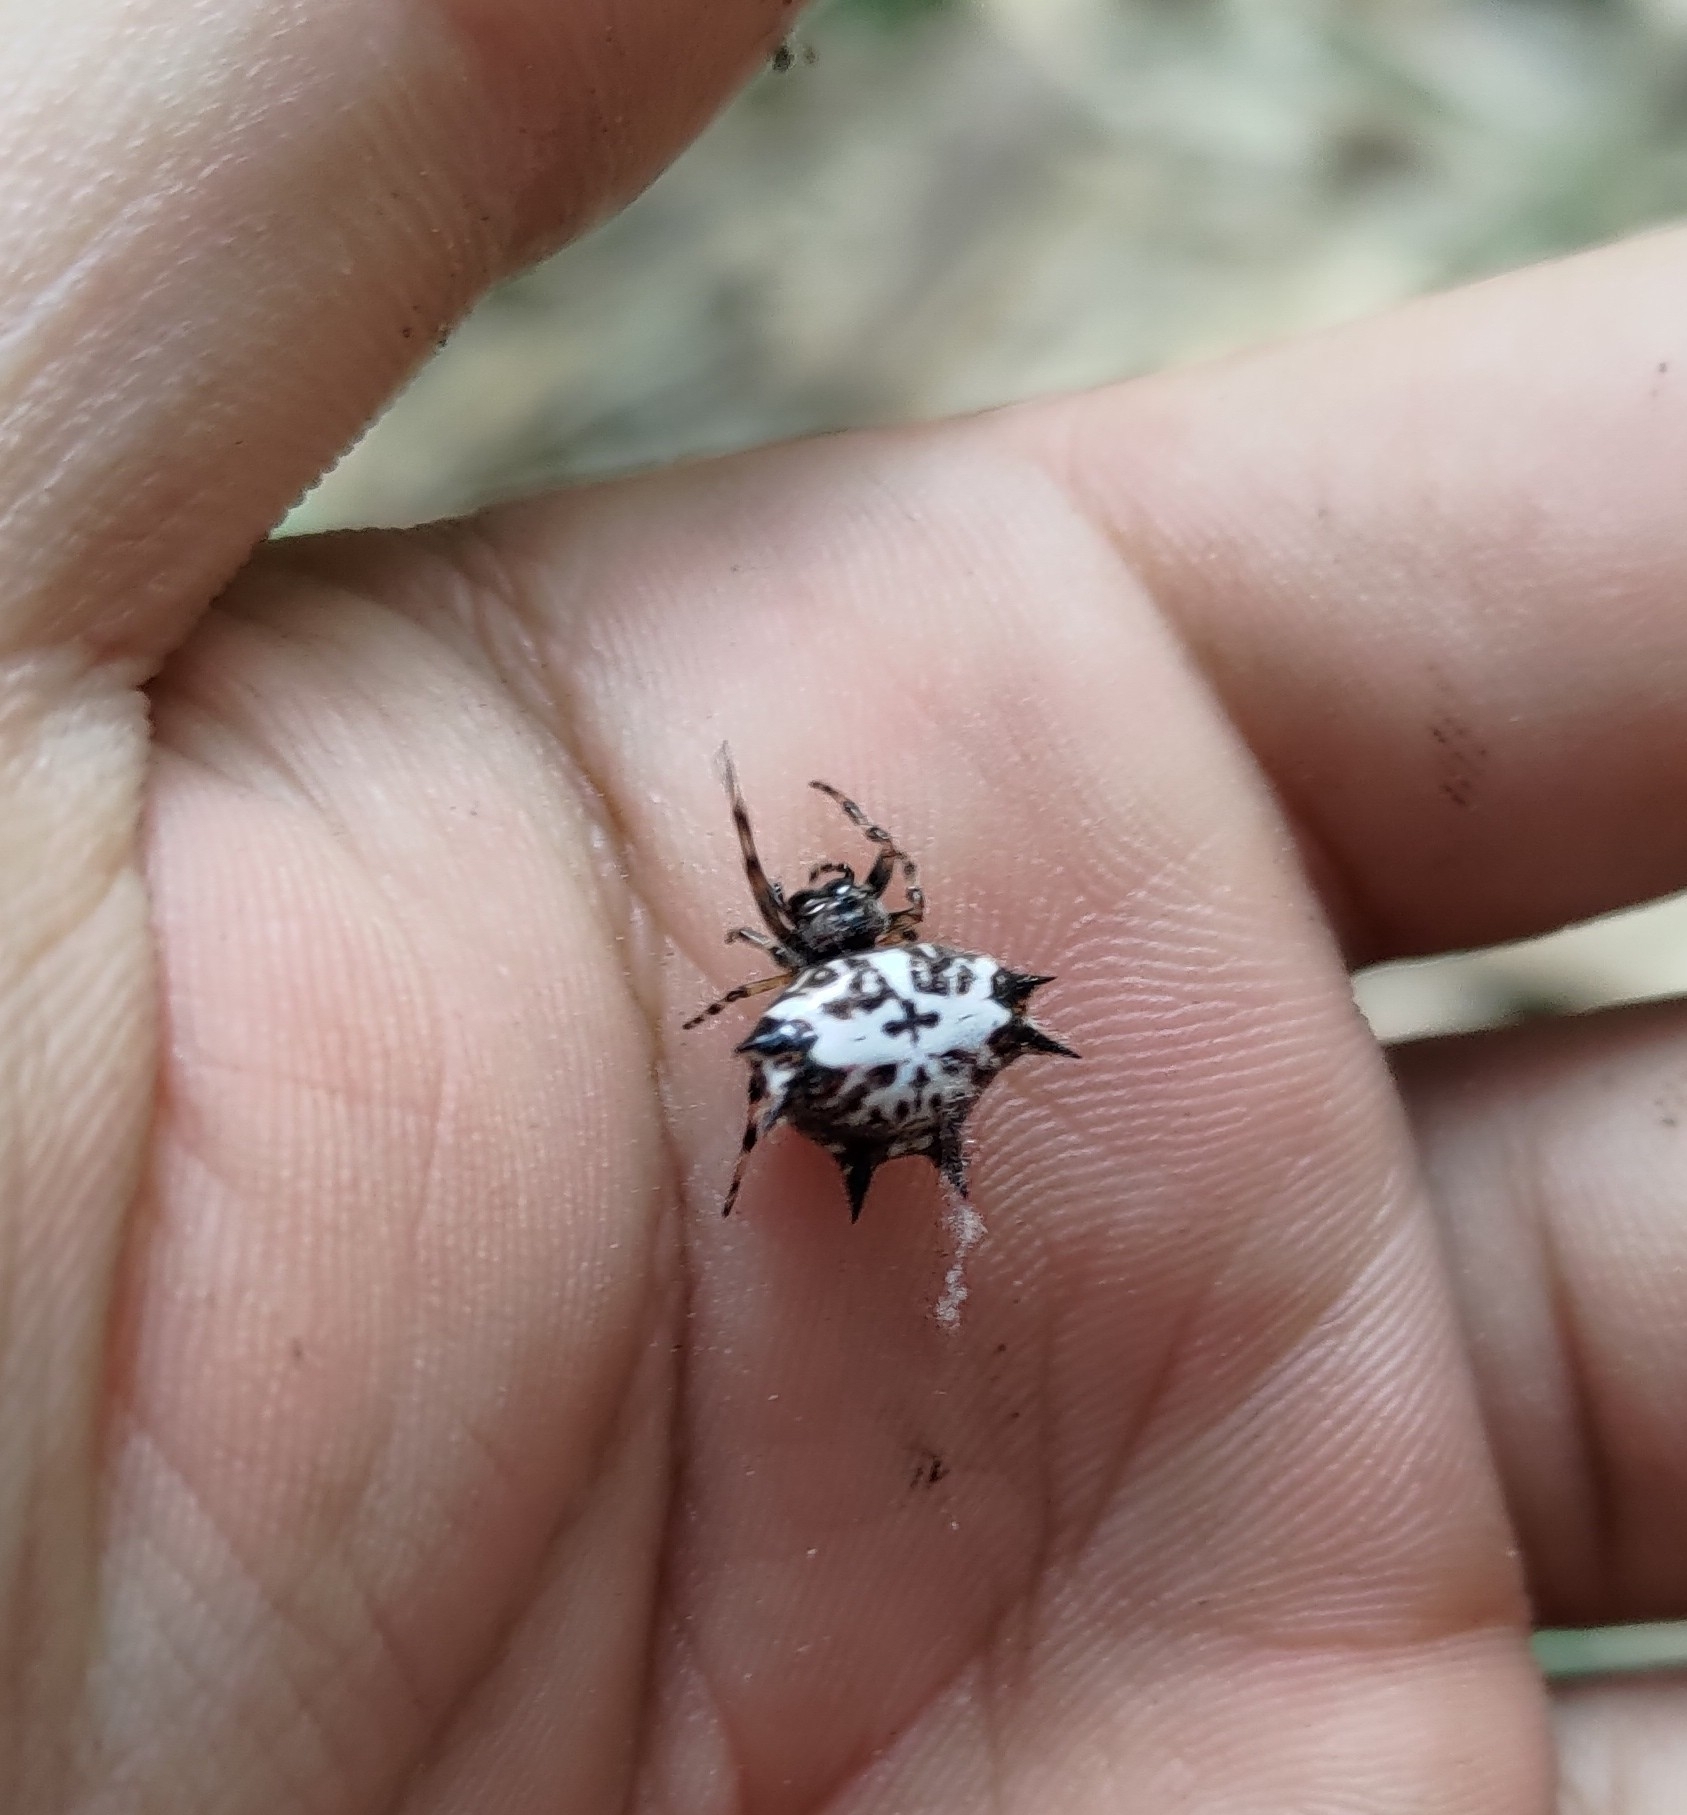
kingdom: Animalia
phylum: Arthropoda
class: Arachnida
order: Araneae
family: Araneidae
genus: Gasteracantha
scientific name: Gasteracantha kuhli
